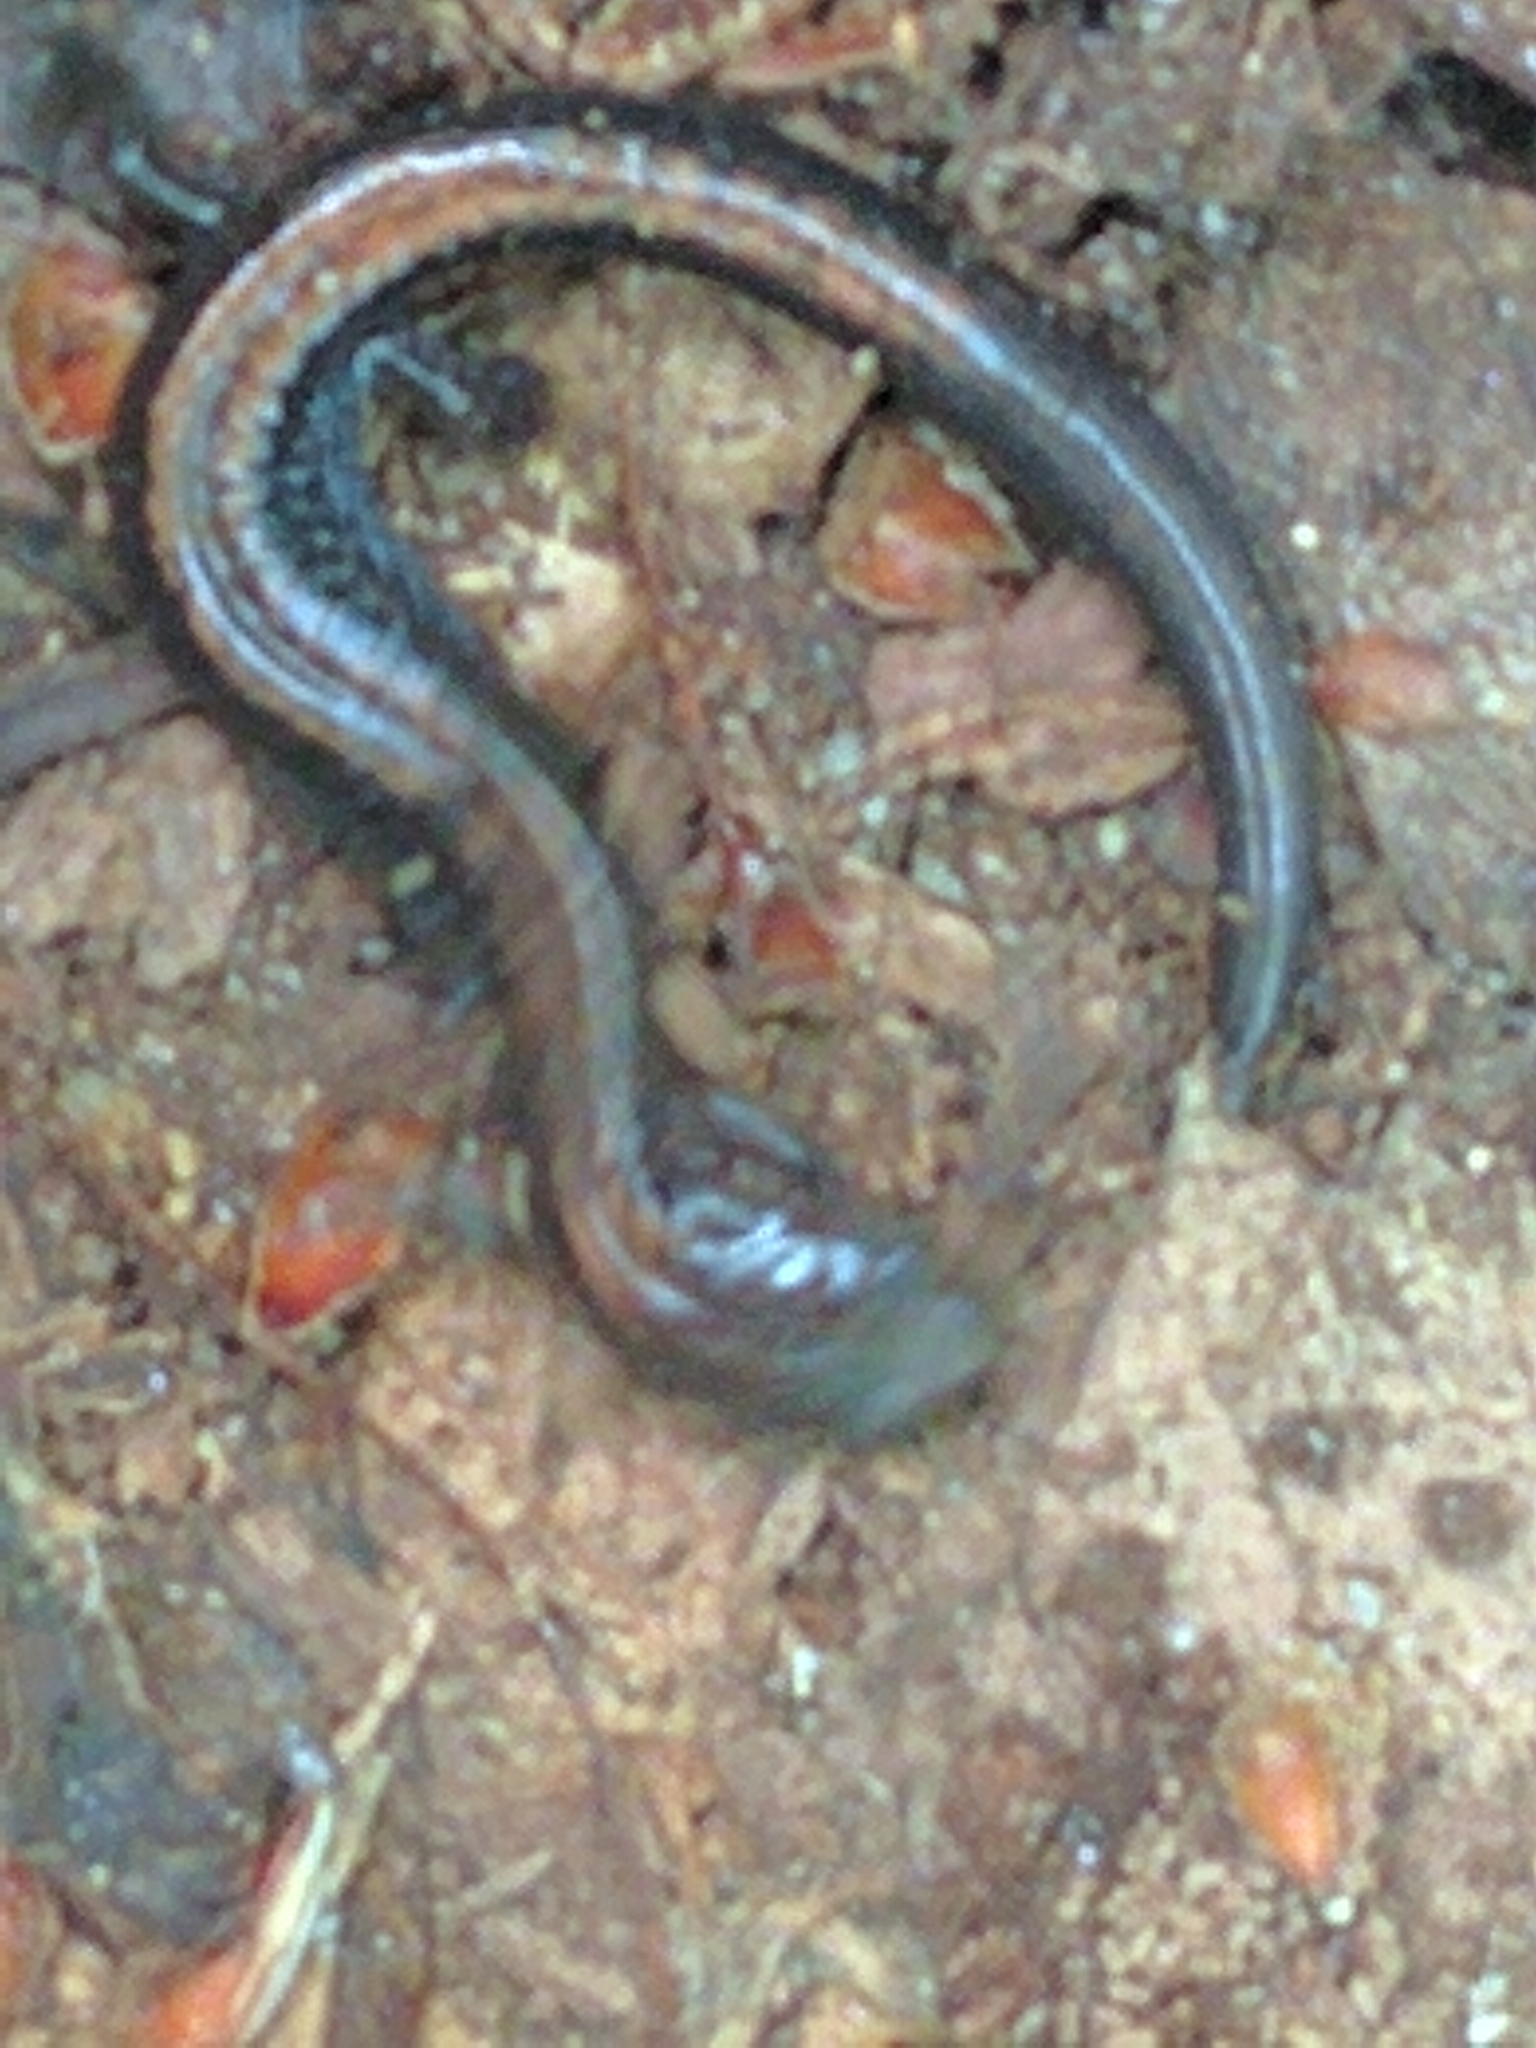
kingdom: Animalia
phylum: Chordata
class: Amphibia
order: Caudata
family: Plethodontidae
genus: Plethodon
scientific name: Plethodon cinereus
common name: Redback salamander
